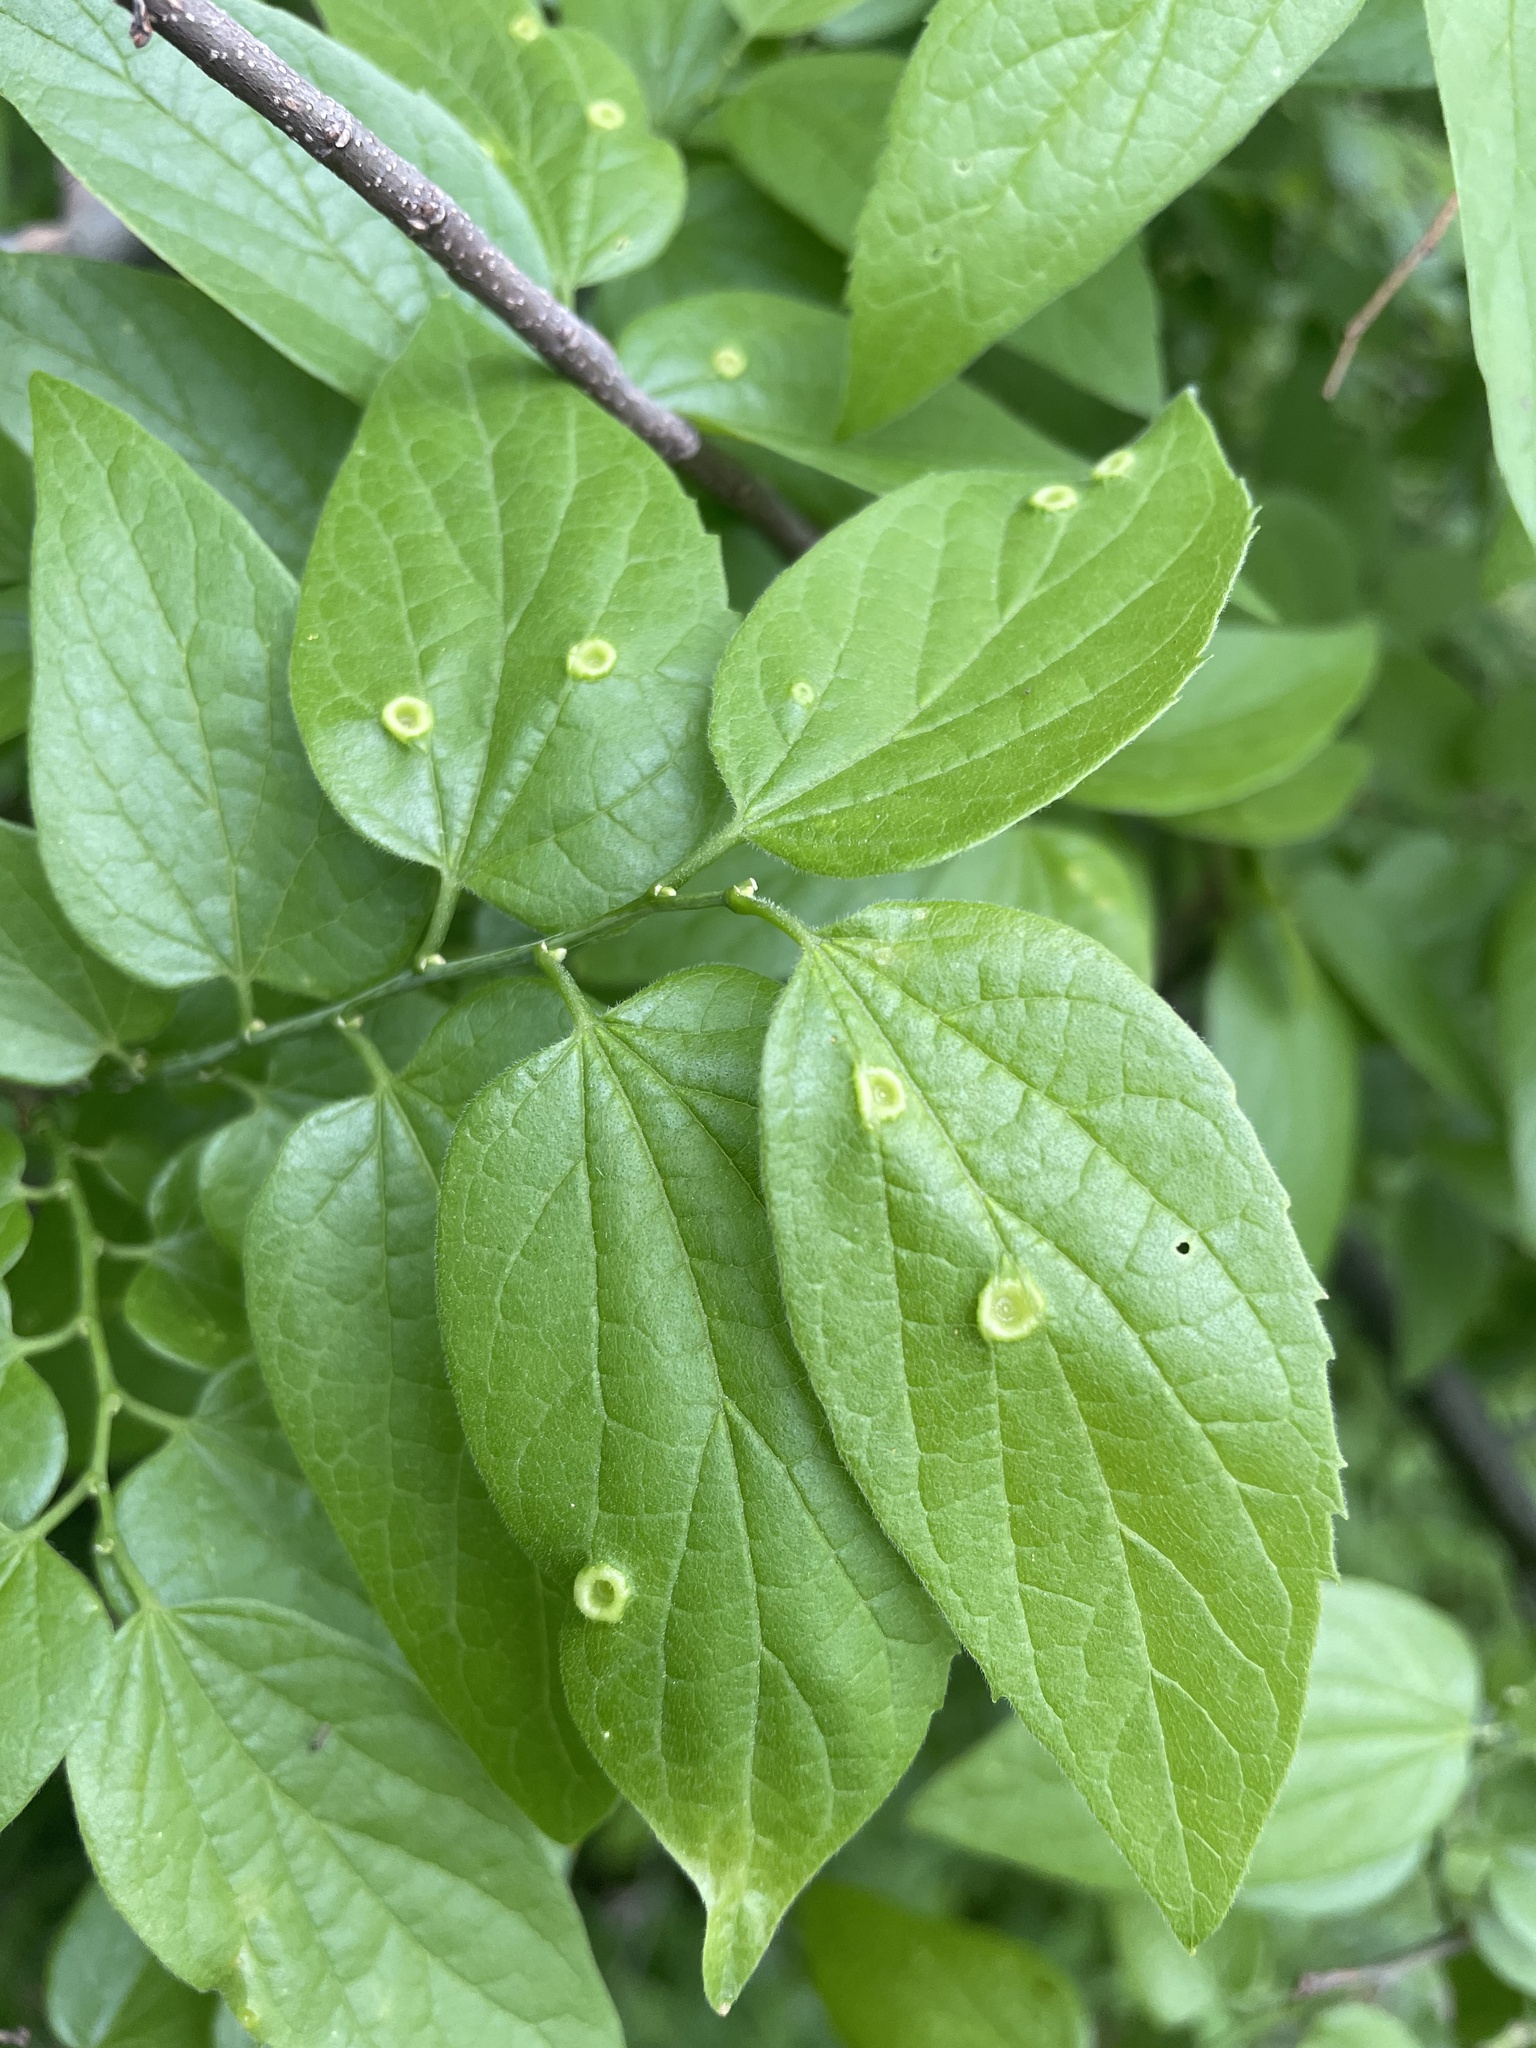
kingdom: Animalia
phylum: Arthropoda
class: Insecta
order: Hemiptera
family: Aphalaridae
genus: Pachypsylla
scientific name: Pachypsylla celtidismamma
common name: Hackberry nipplegall psyllid
